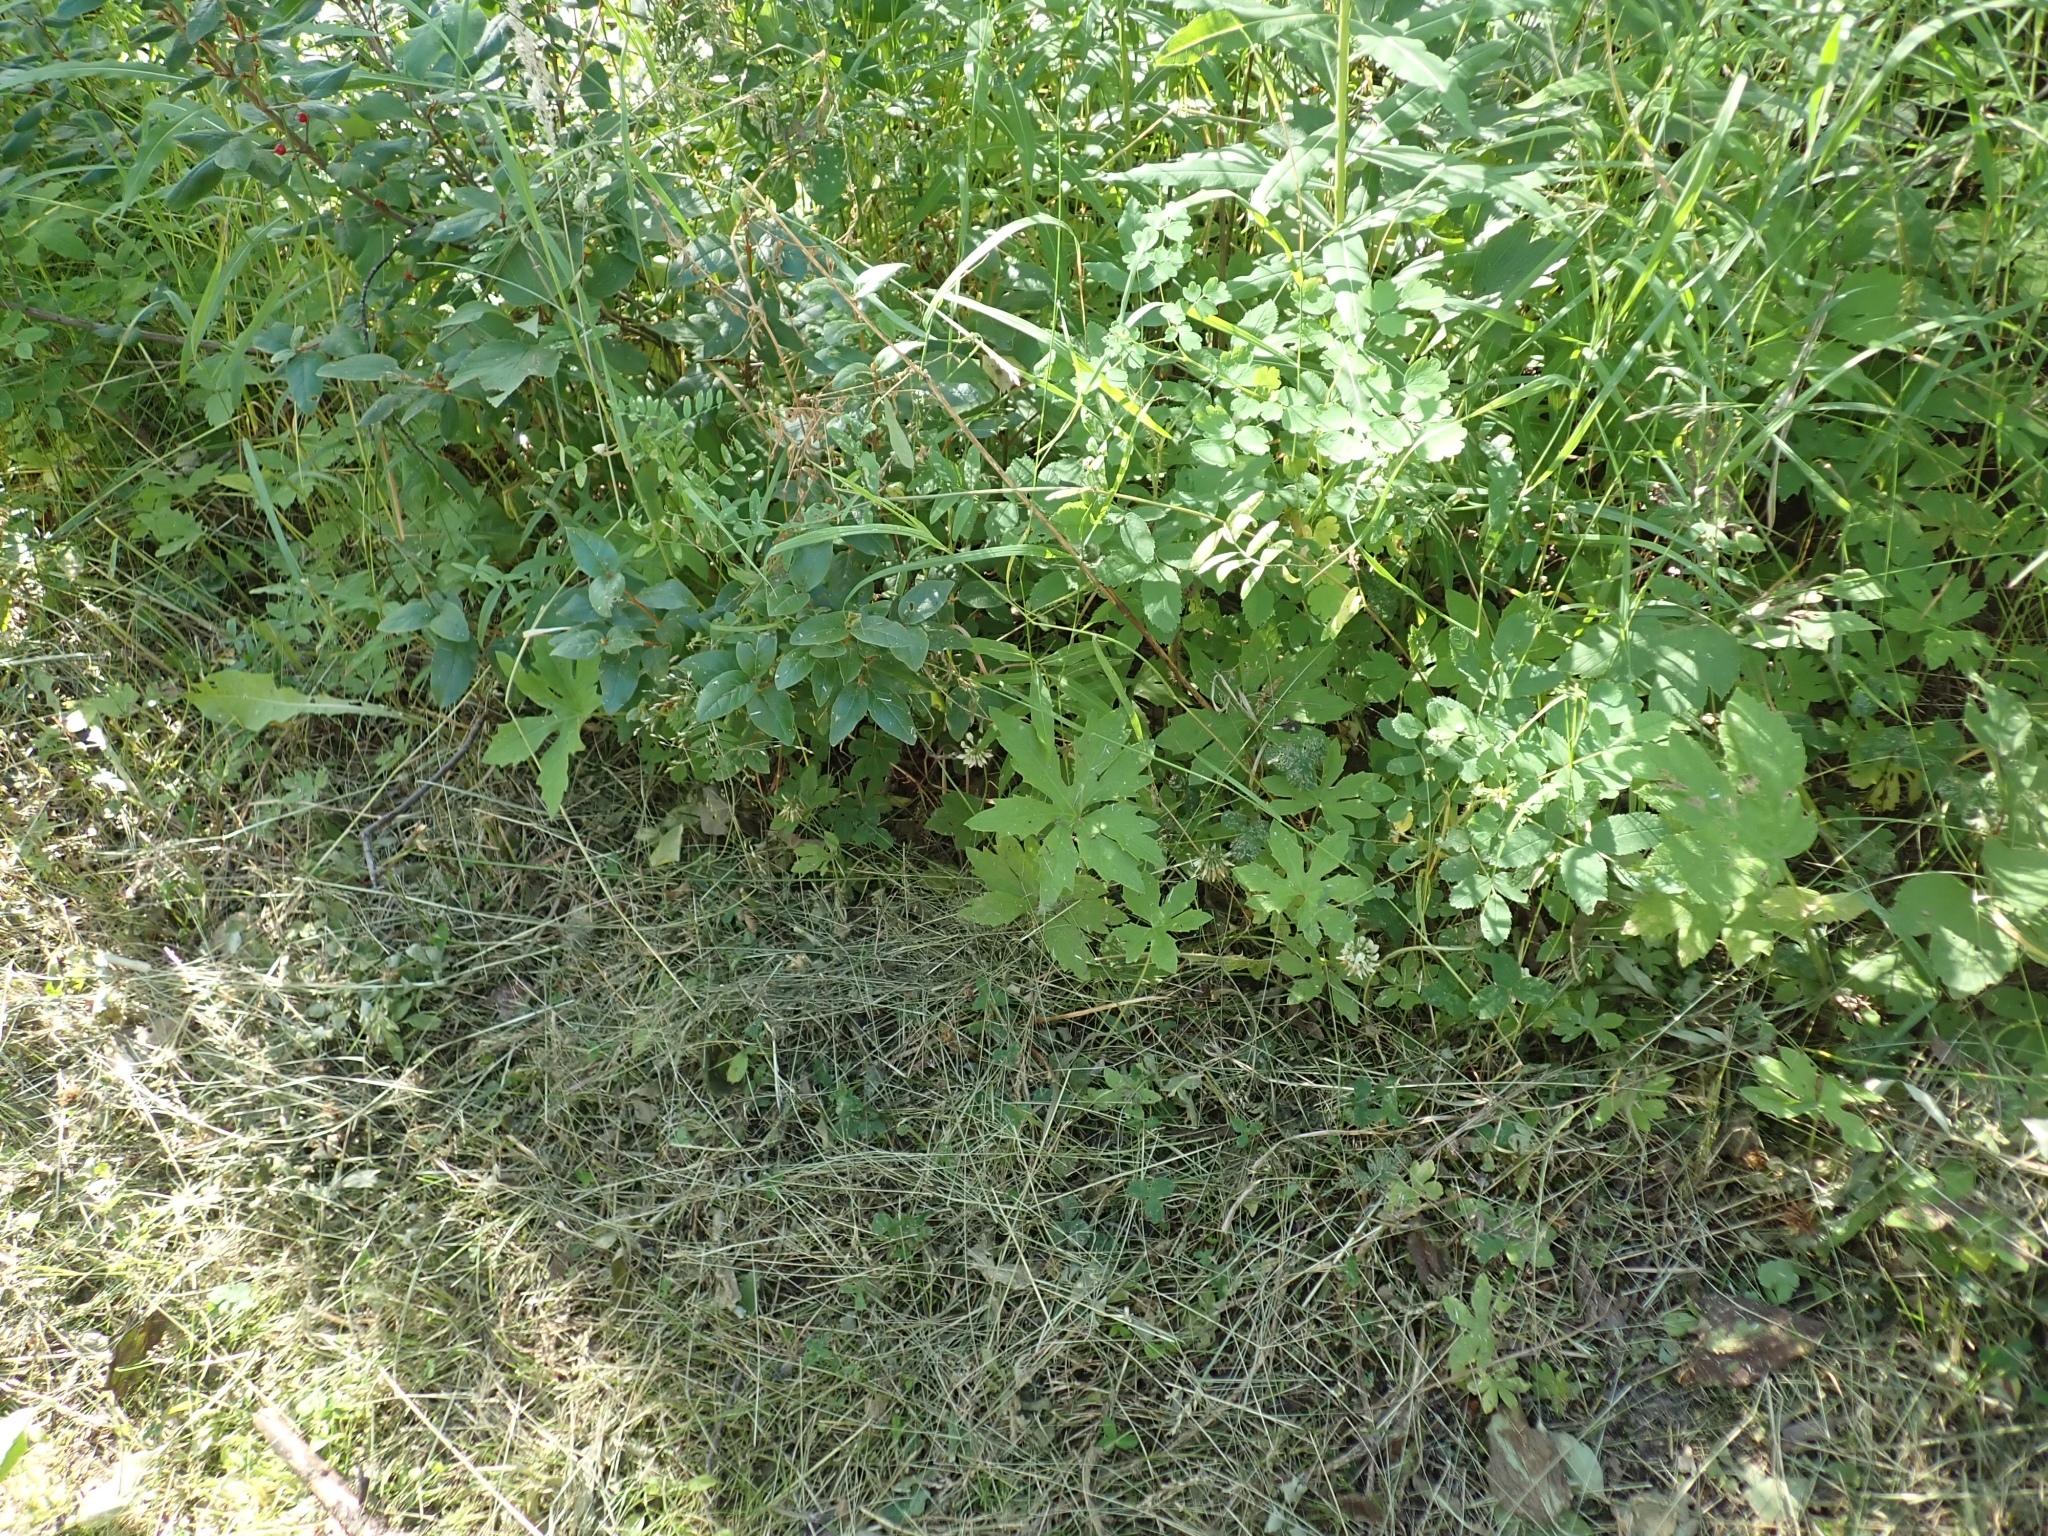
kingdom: Plantae
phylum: Tracheophyta
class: Magnoliopsida
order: Asterales
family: Asteraceae
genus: Petasites
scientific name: Petasites frigidus
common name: Arctic butterbur
